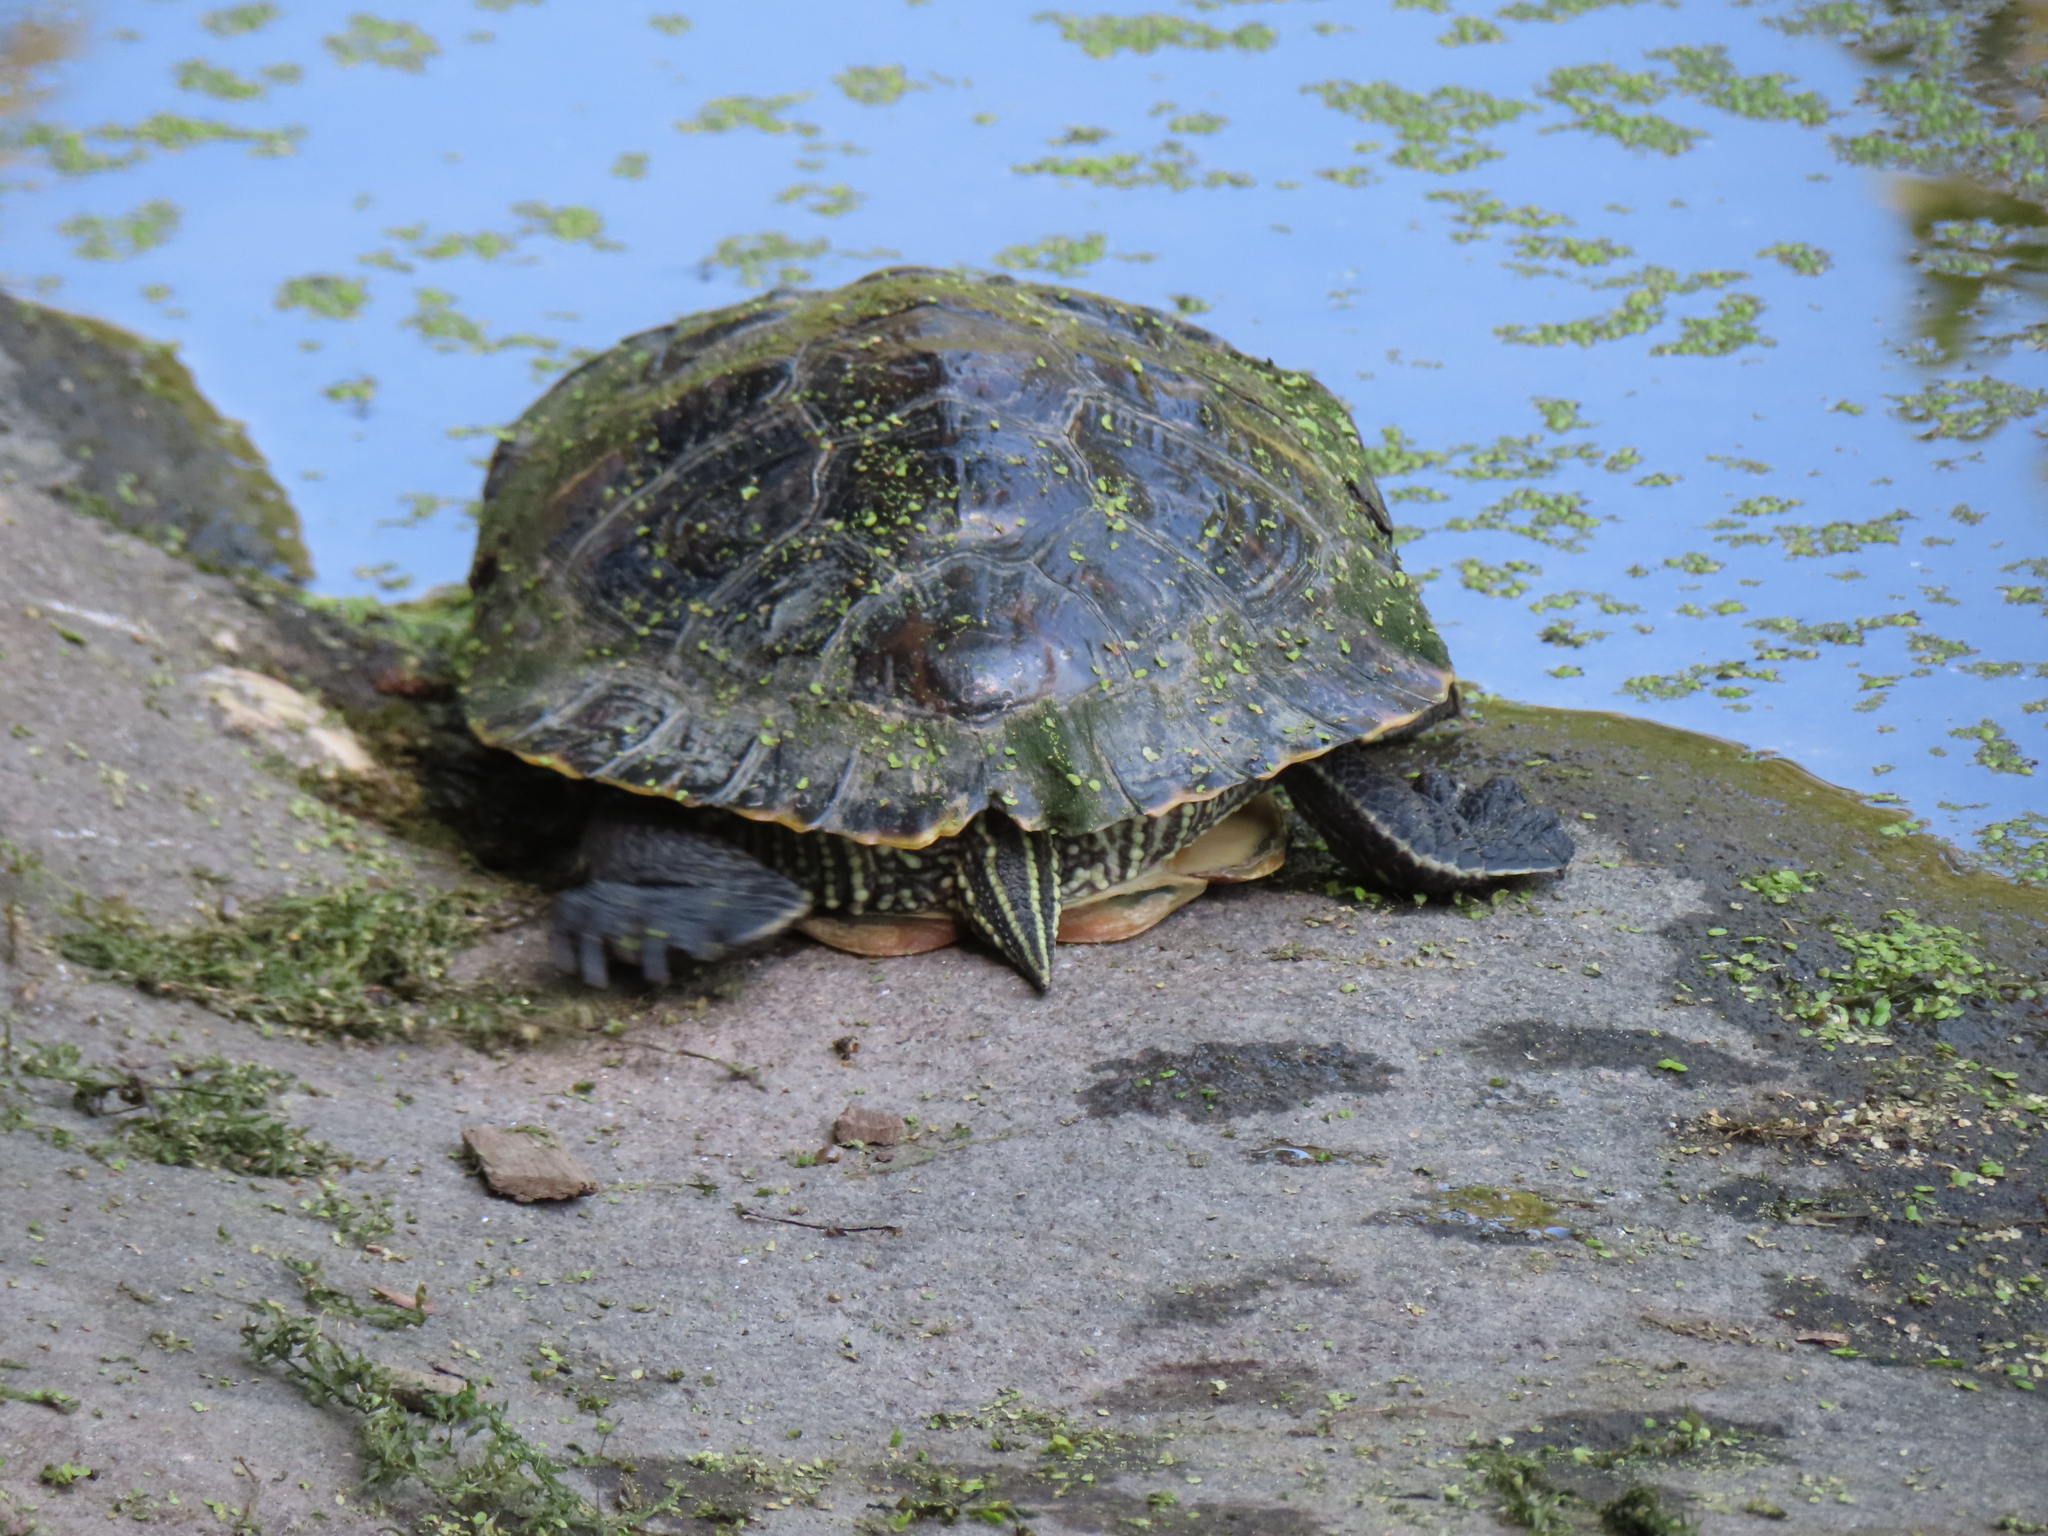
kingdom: Animalia
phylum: Chordata
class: Testudines
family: Emydidae
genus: Trachemys
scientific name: Trachemys scripta
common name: Slider
